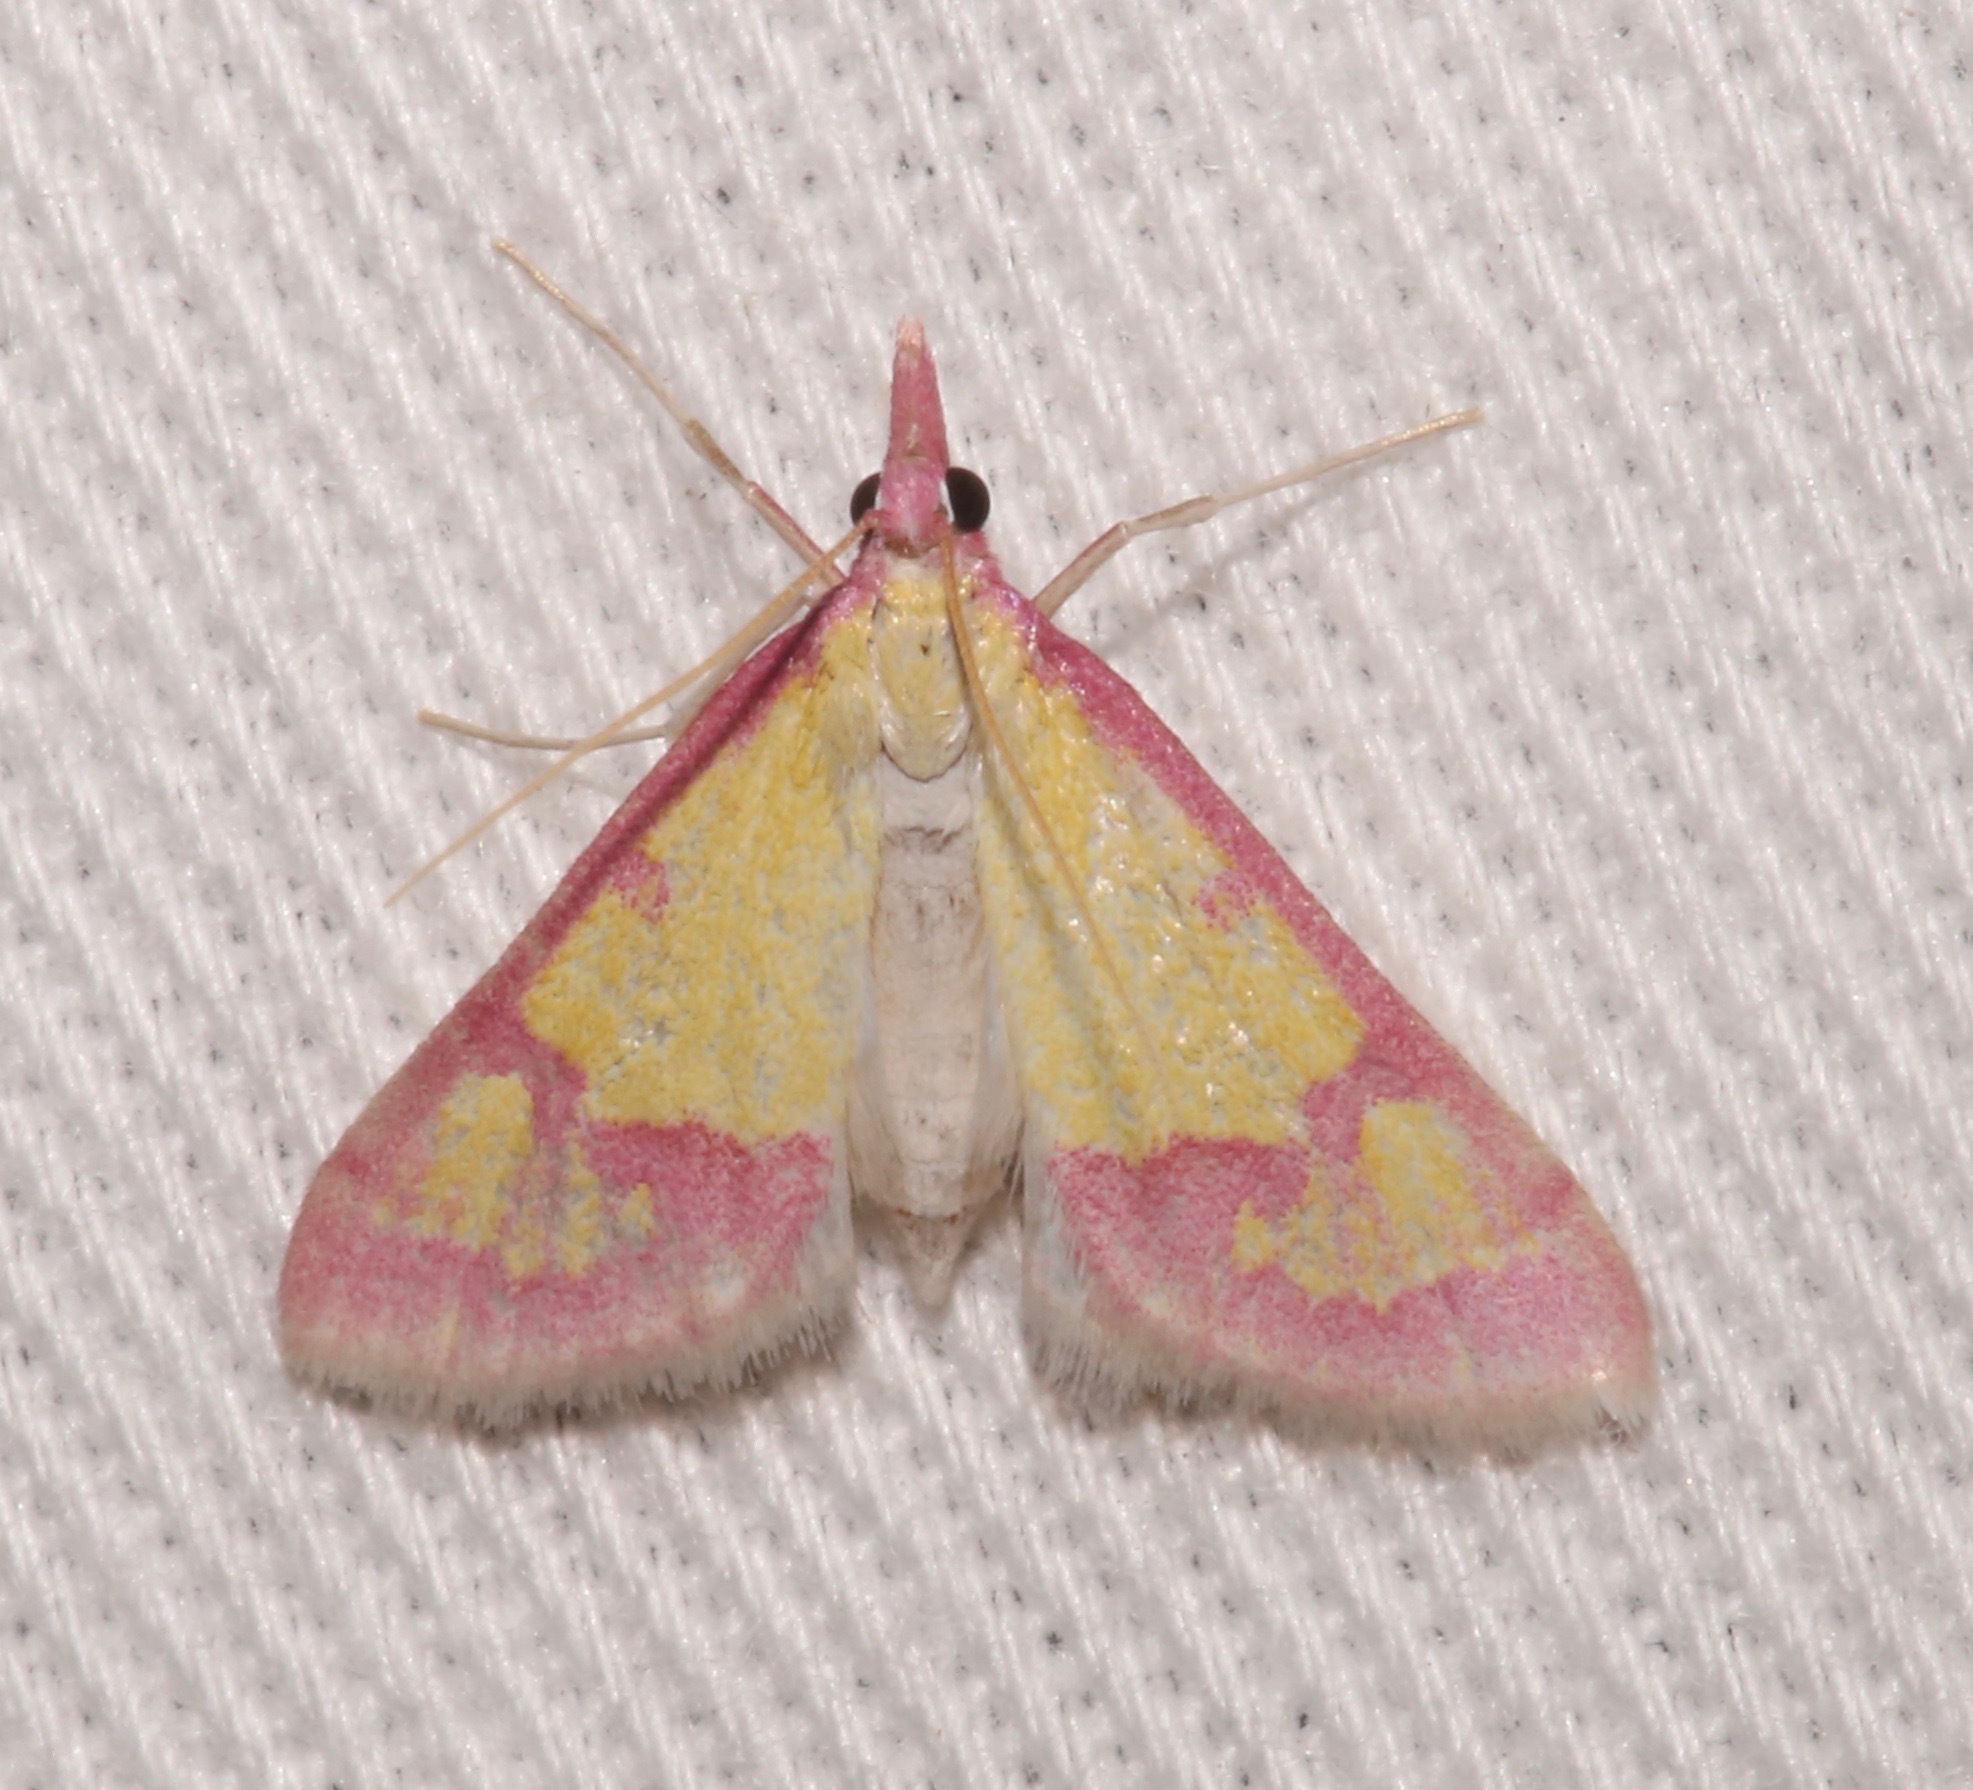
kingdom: Animalia
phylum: Arthropoda
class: Insecta
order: Lepidoptera
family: Crambidae
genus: Choristostigma
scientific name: Choristostigma roseopennalis
